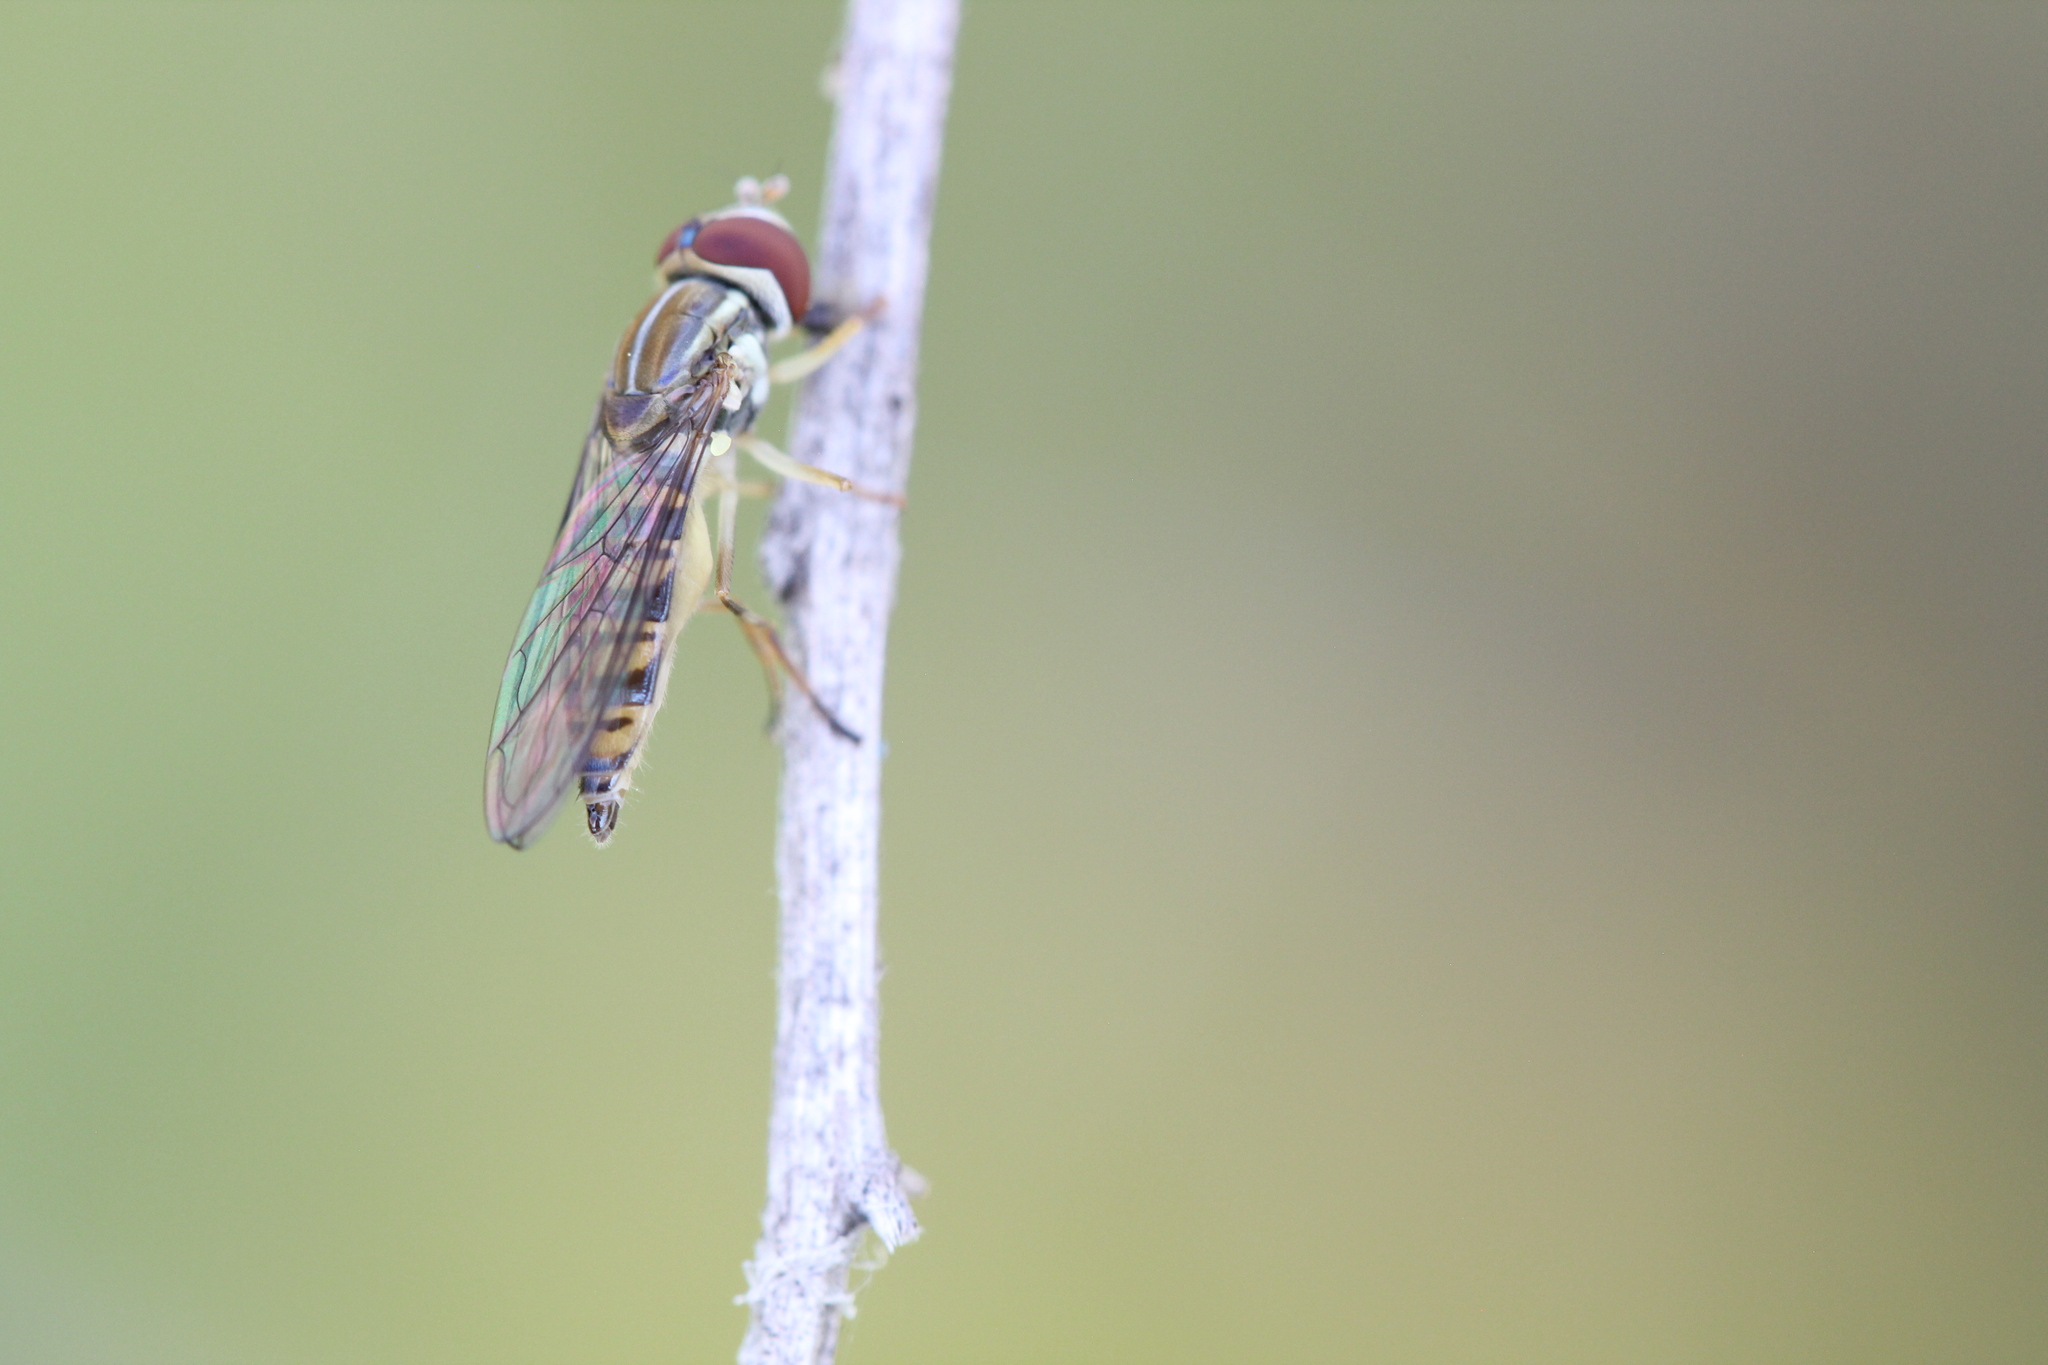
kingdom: Animalia
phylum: Arthropoda
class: Insecta
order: Diptera
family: Syrphidae
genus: Toxomerus
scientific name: Toxomerus politus
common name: Maize calligrapher
